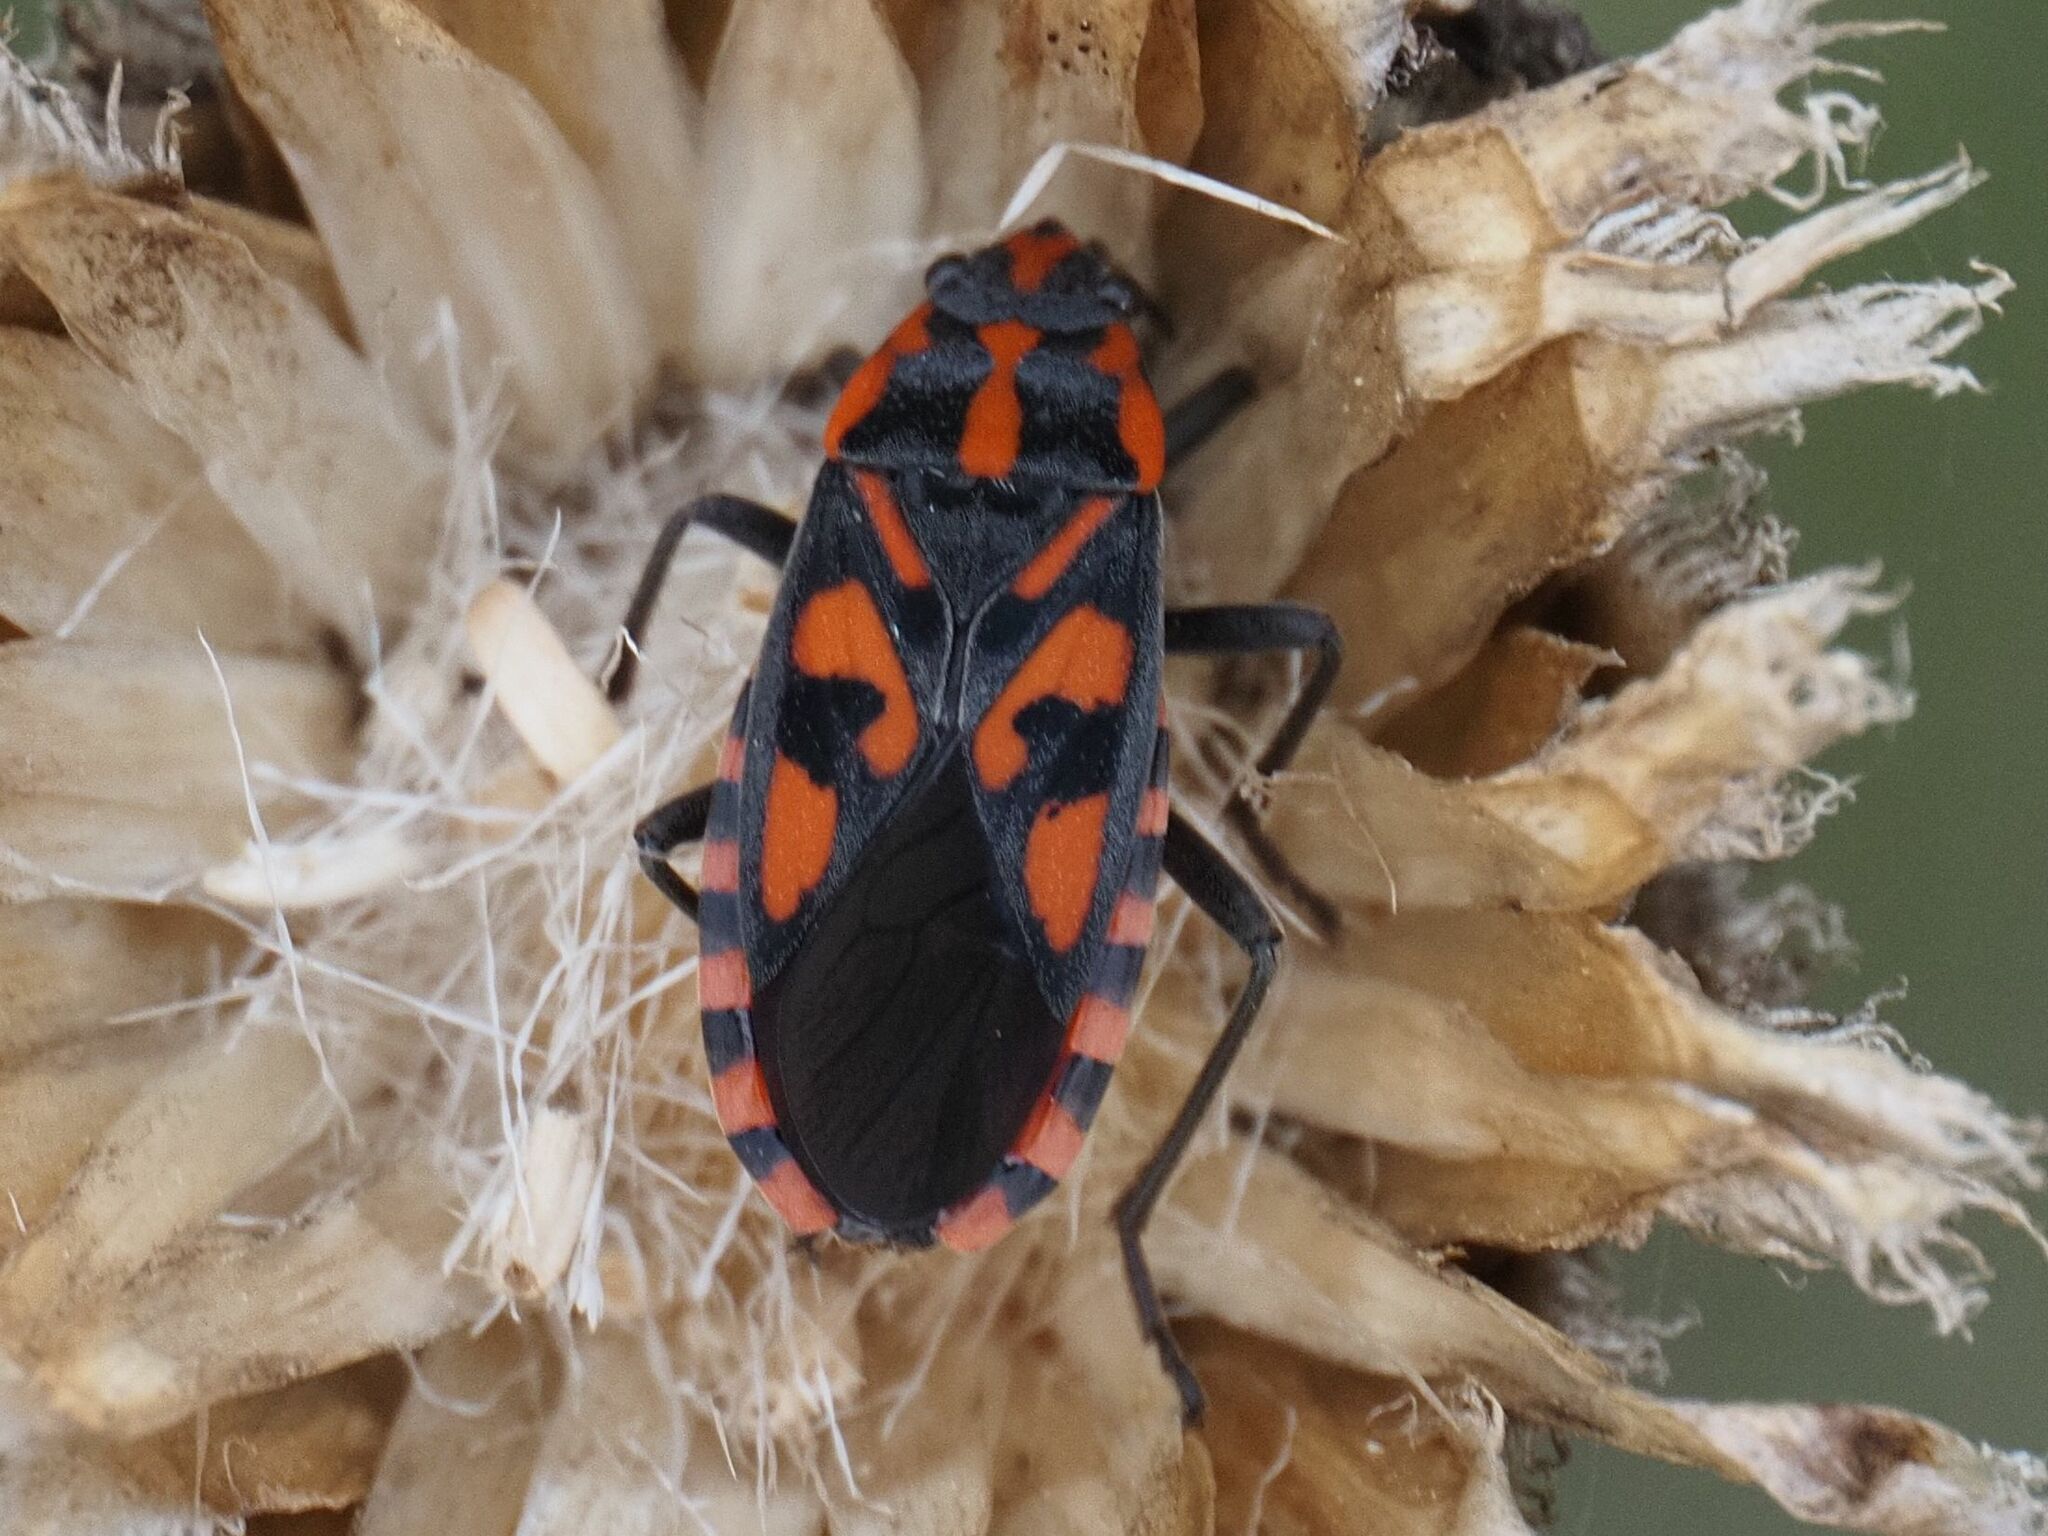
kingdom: Animalia
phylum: Arthropoda
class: Insecta
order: Hemiptera
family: Lygaeidae
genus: Spilostethus
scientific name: Spilostethus saxatilis
